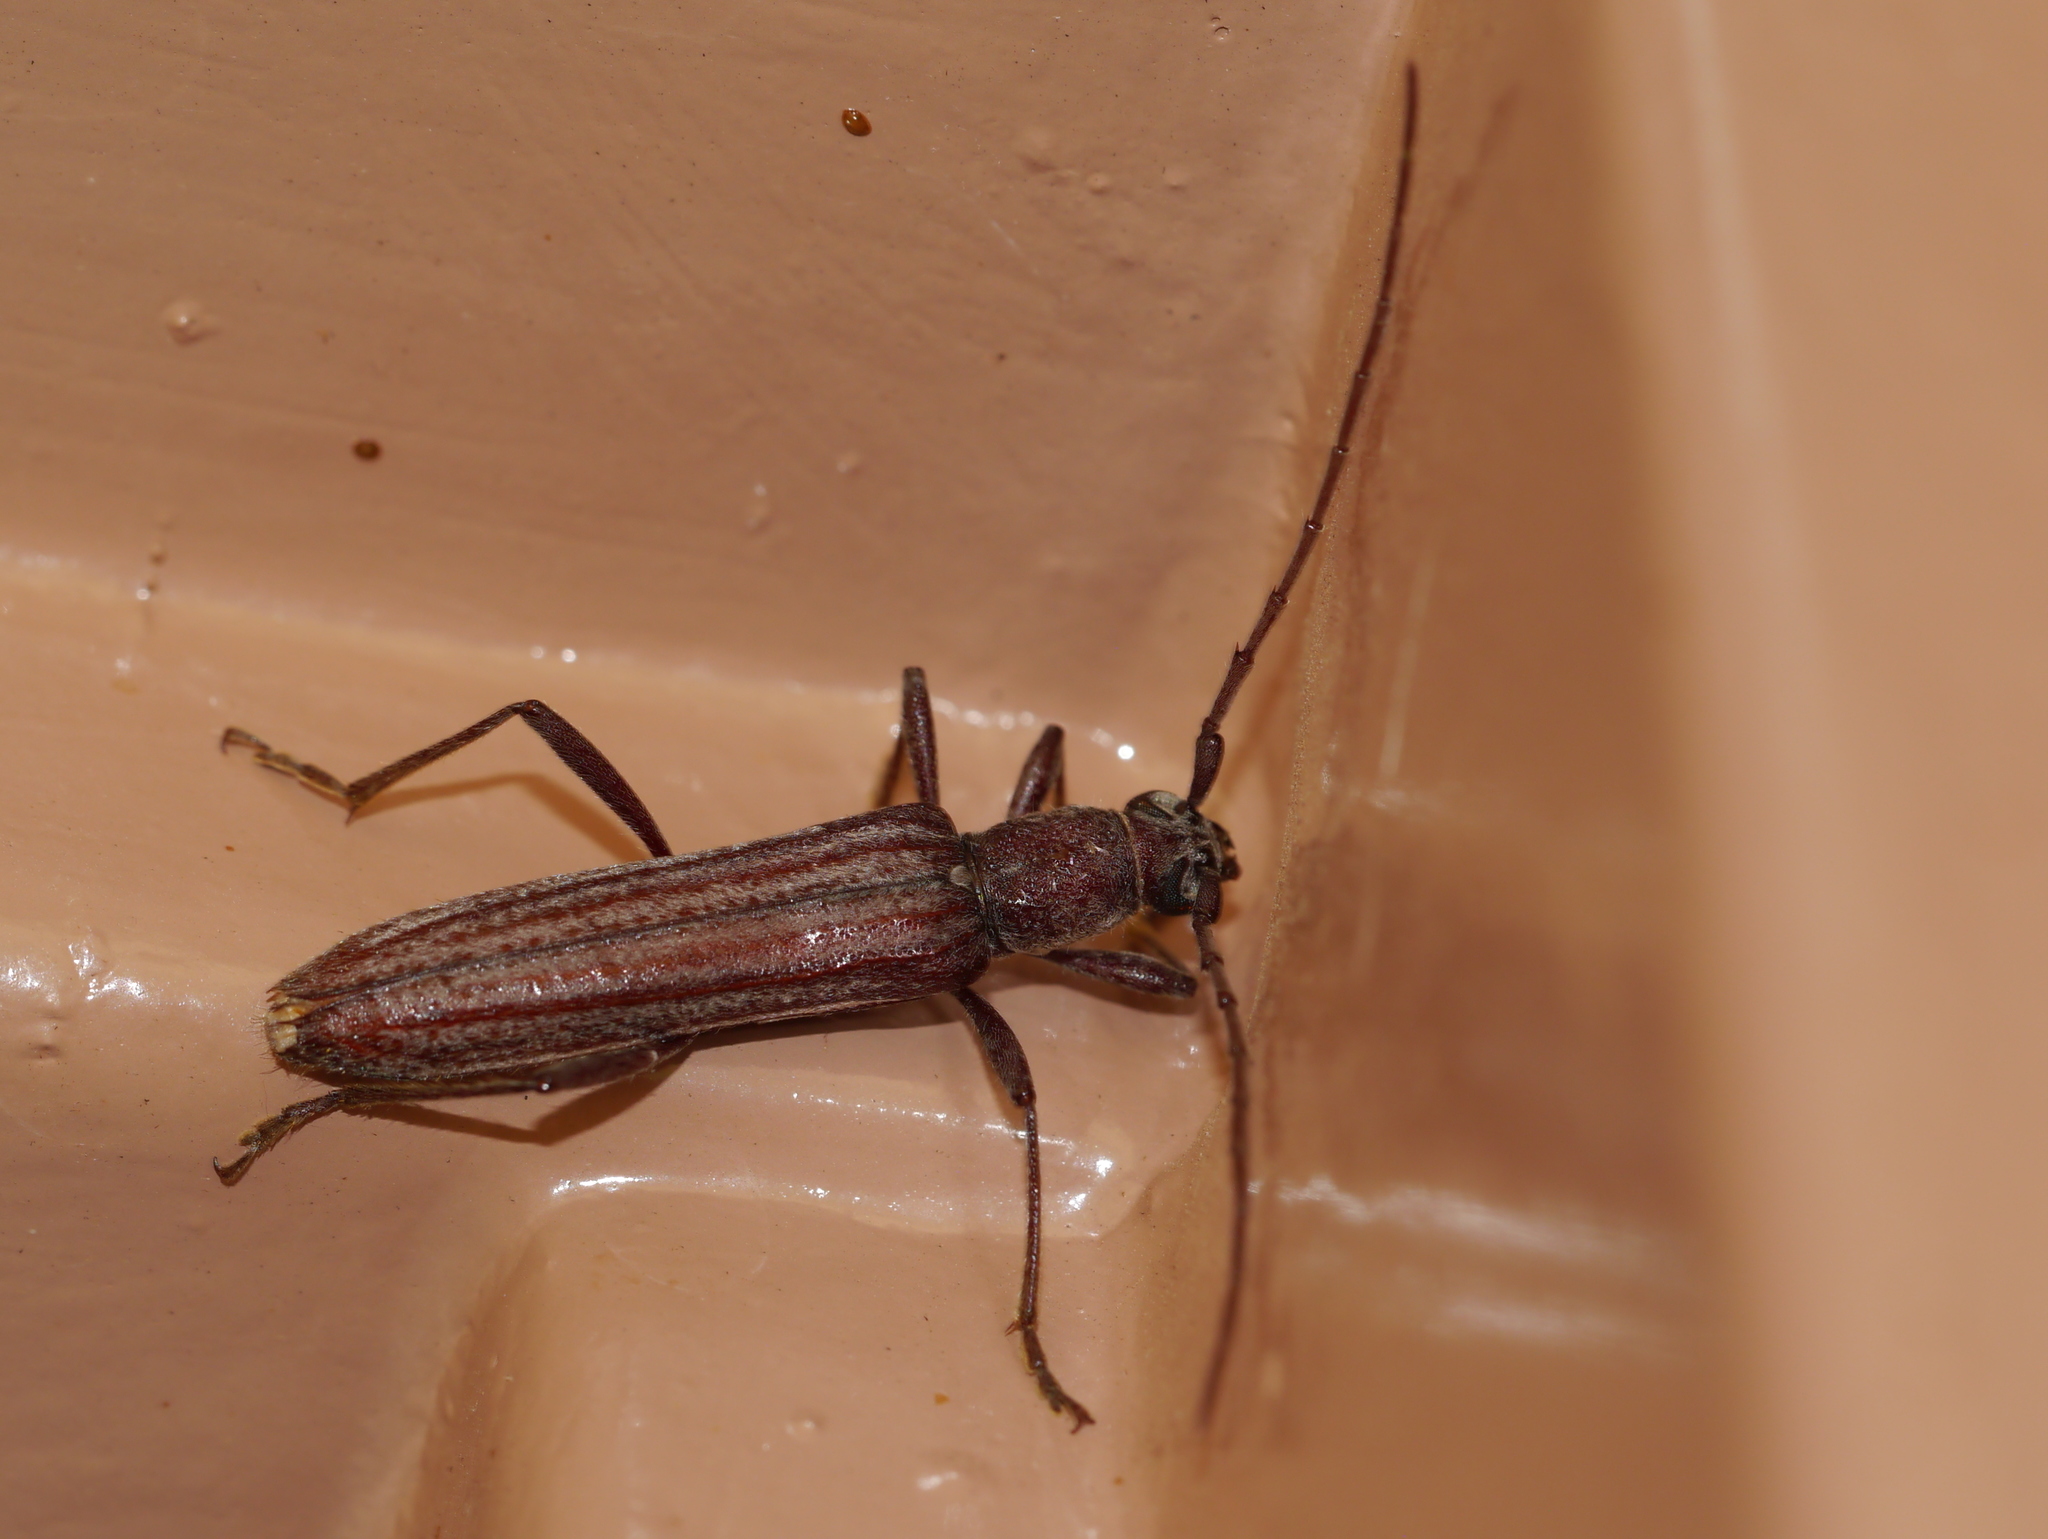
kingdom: Animalia
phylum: Arthropoda
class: Insecta
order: Coleoptera
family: Cerambycidae
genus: Aneflus
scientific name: Aneflus levettei
